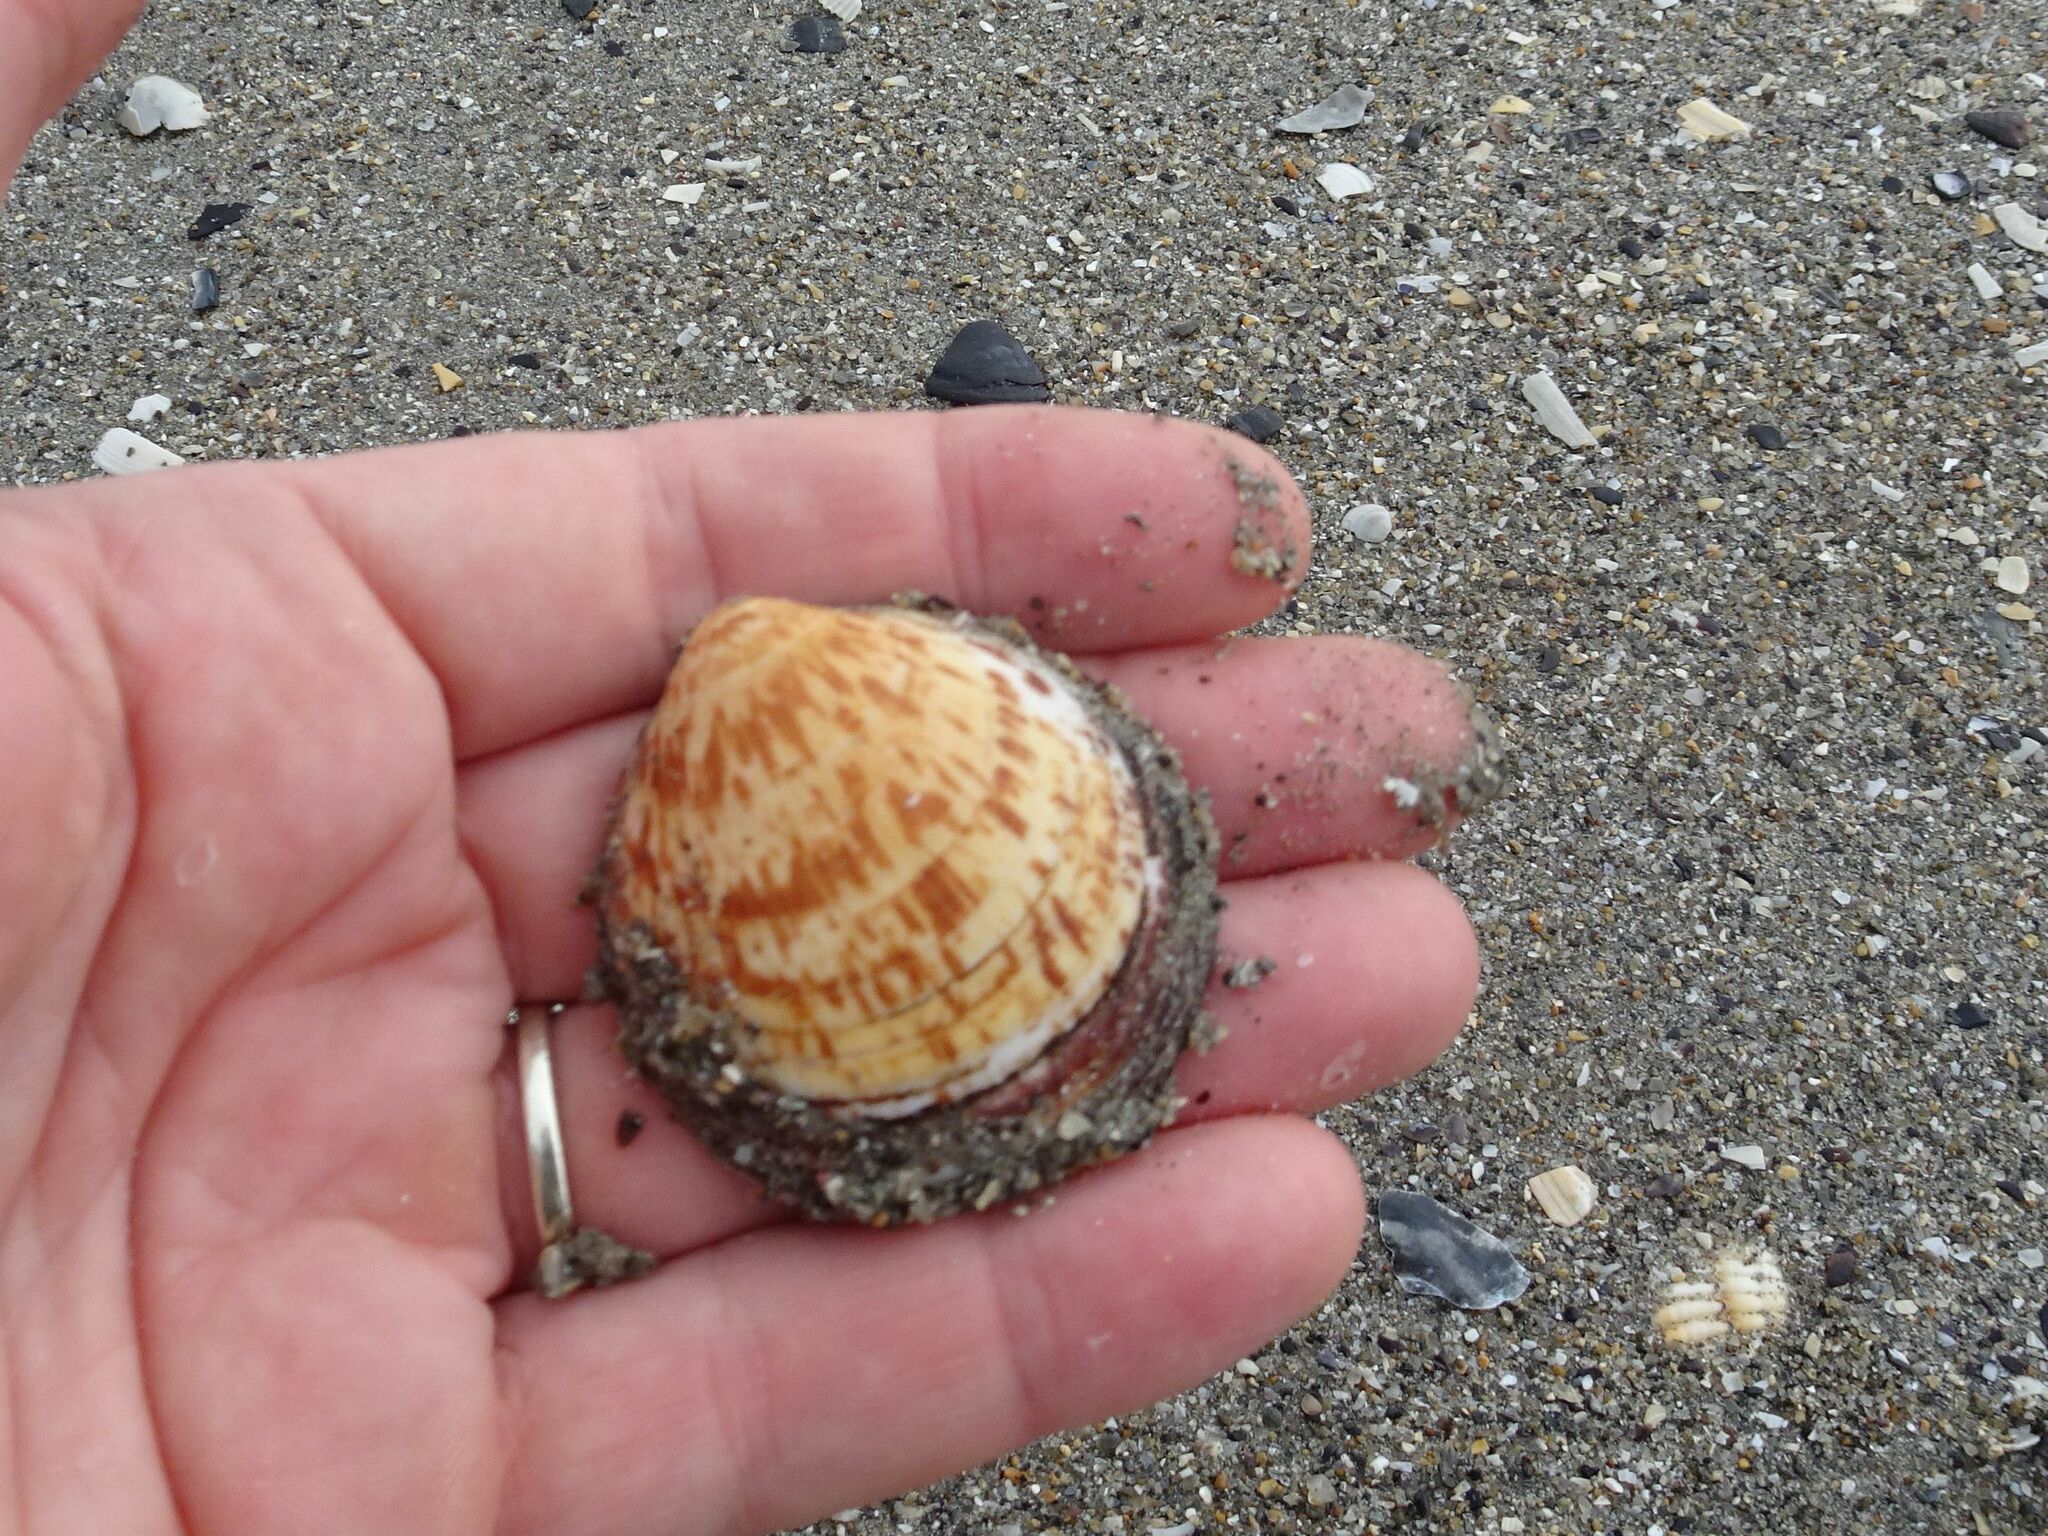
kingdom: Animalia
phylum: Mollusca
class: Bivalvia
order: Arcida
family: Glycymerididae
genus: Glycymeris
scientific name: Glycymeris glycymeris
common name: Dog-cockle
